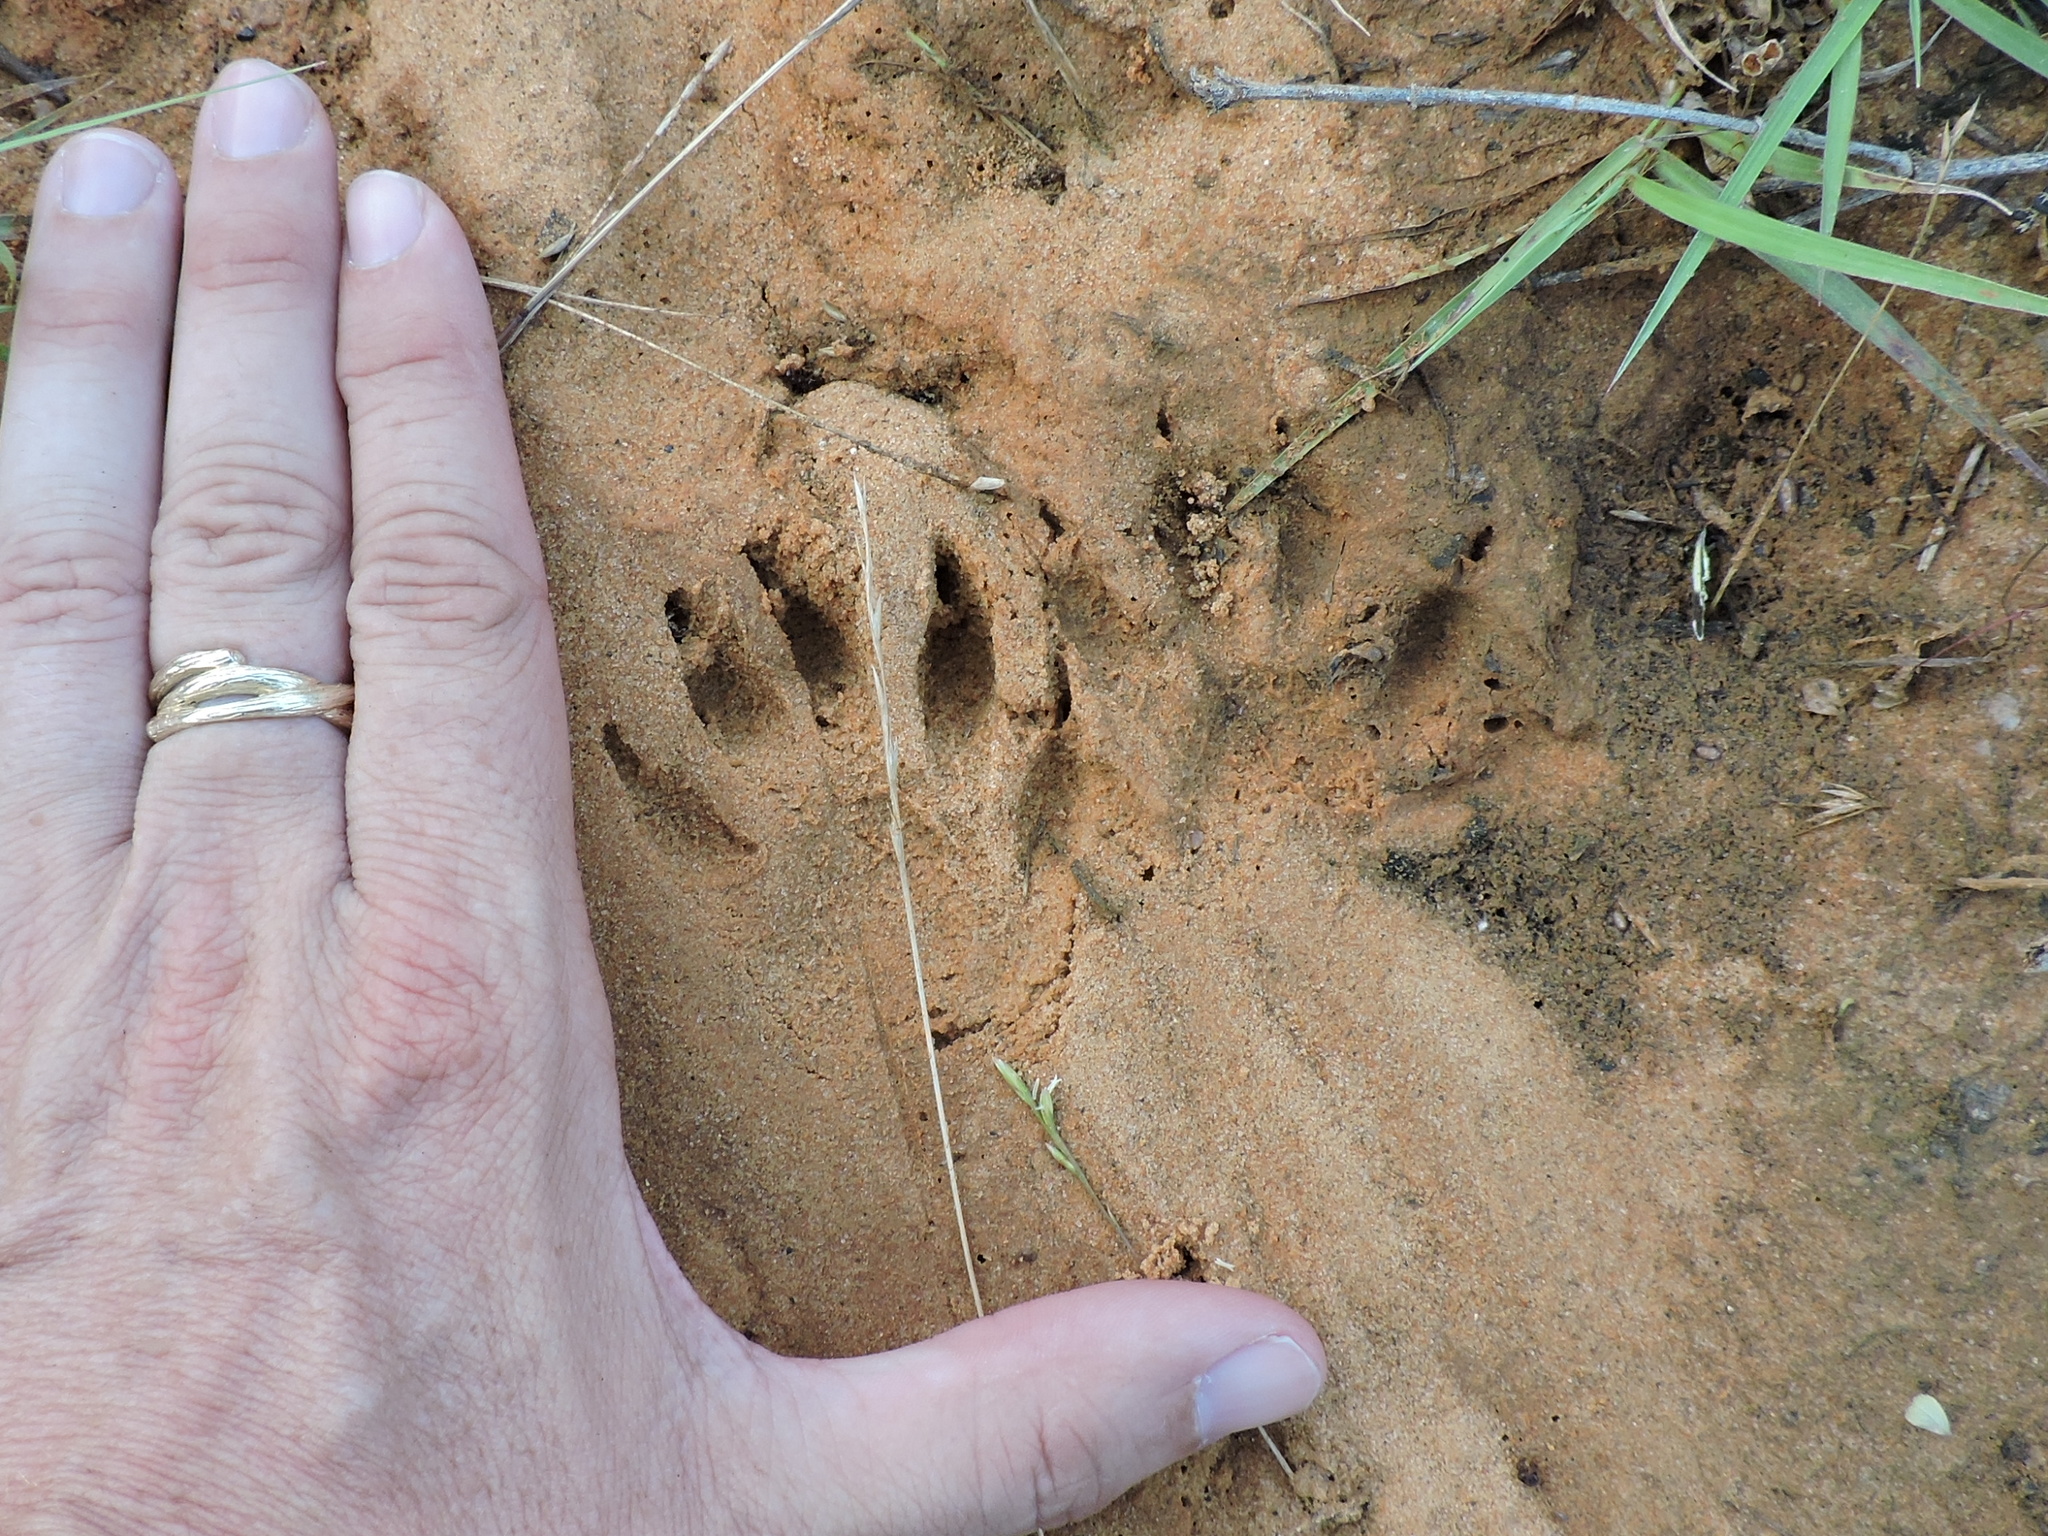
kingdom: Animalia
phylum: Chordata
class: Mammalia
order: Carnivora
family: Procyonidae
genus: Procyon
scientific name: Procyon lotor
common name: Raccoon
